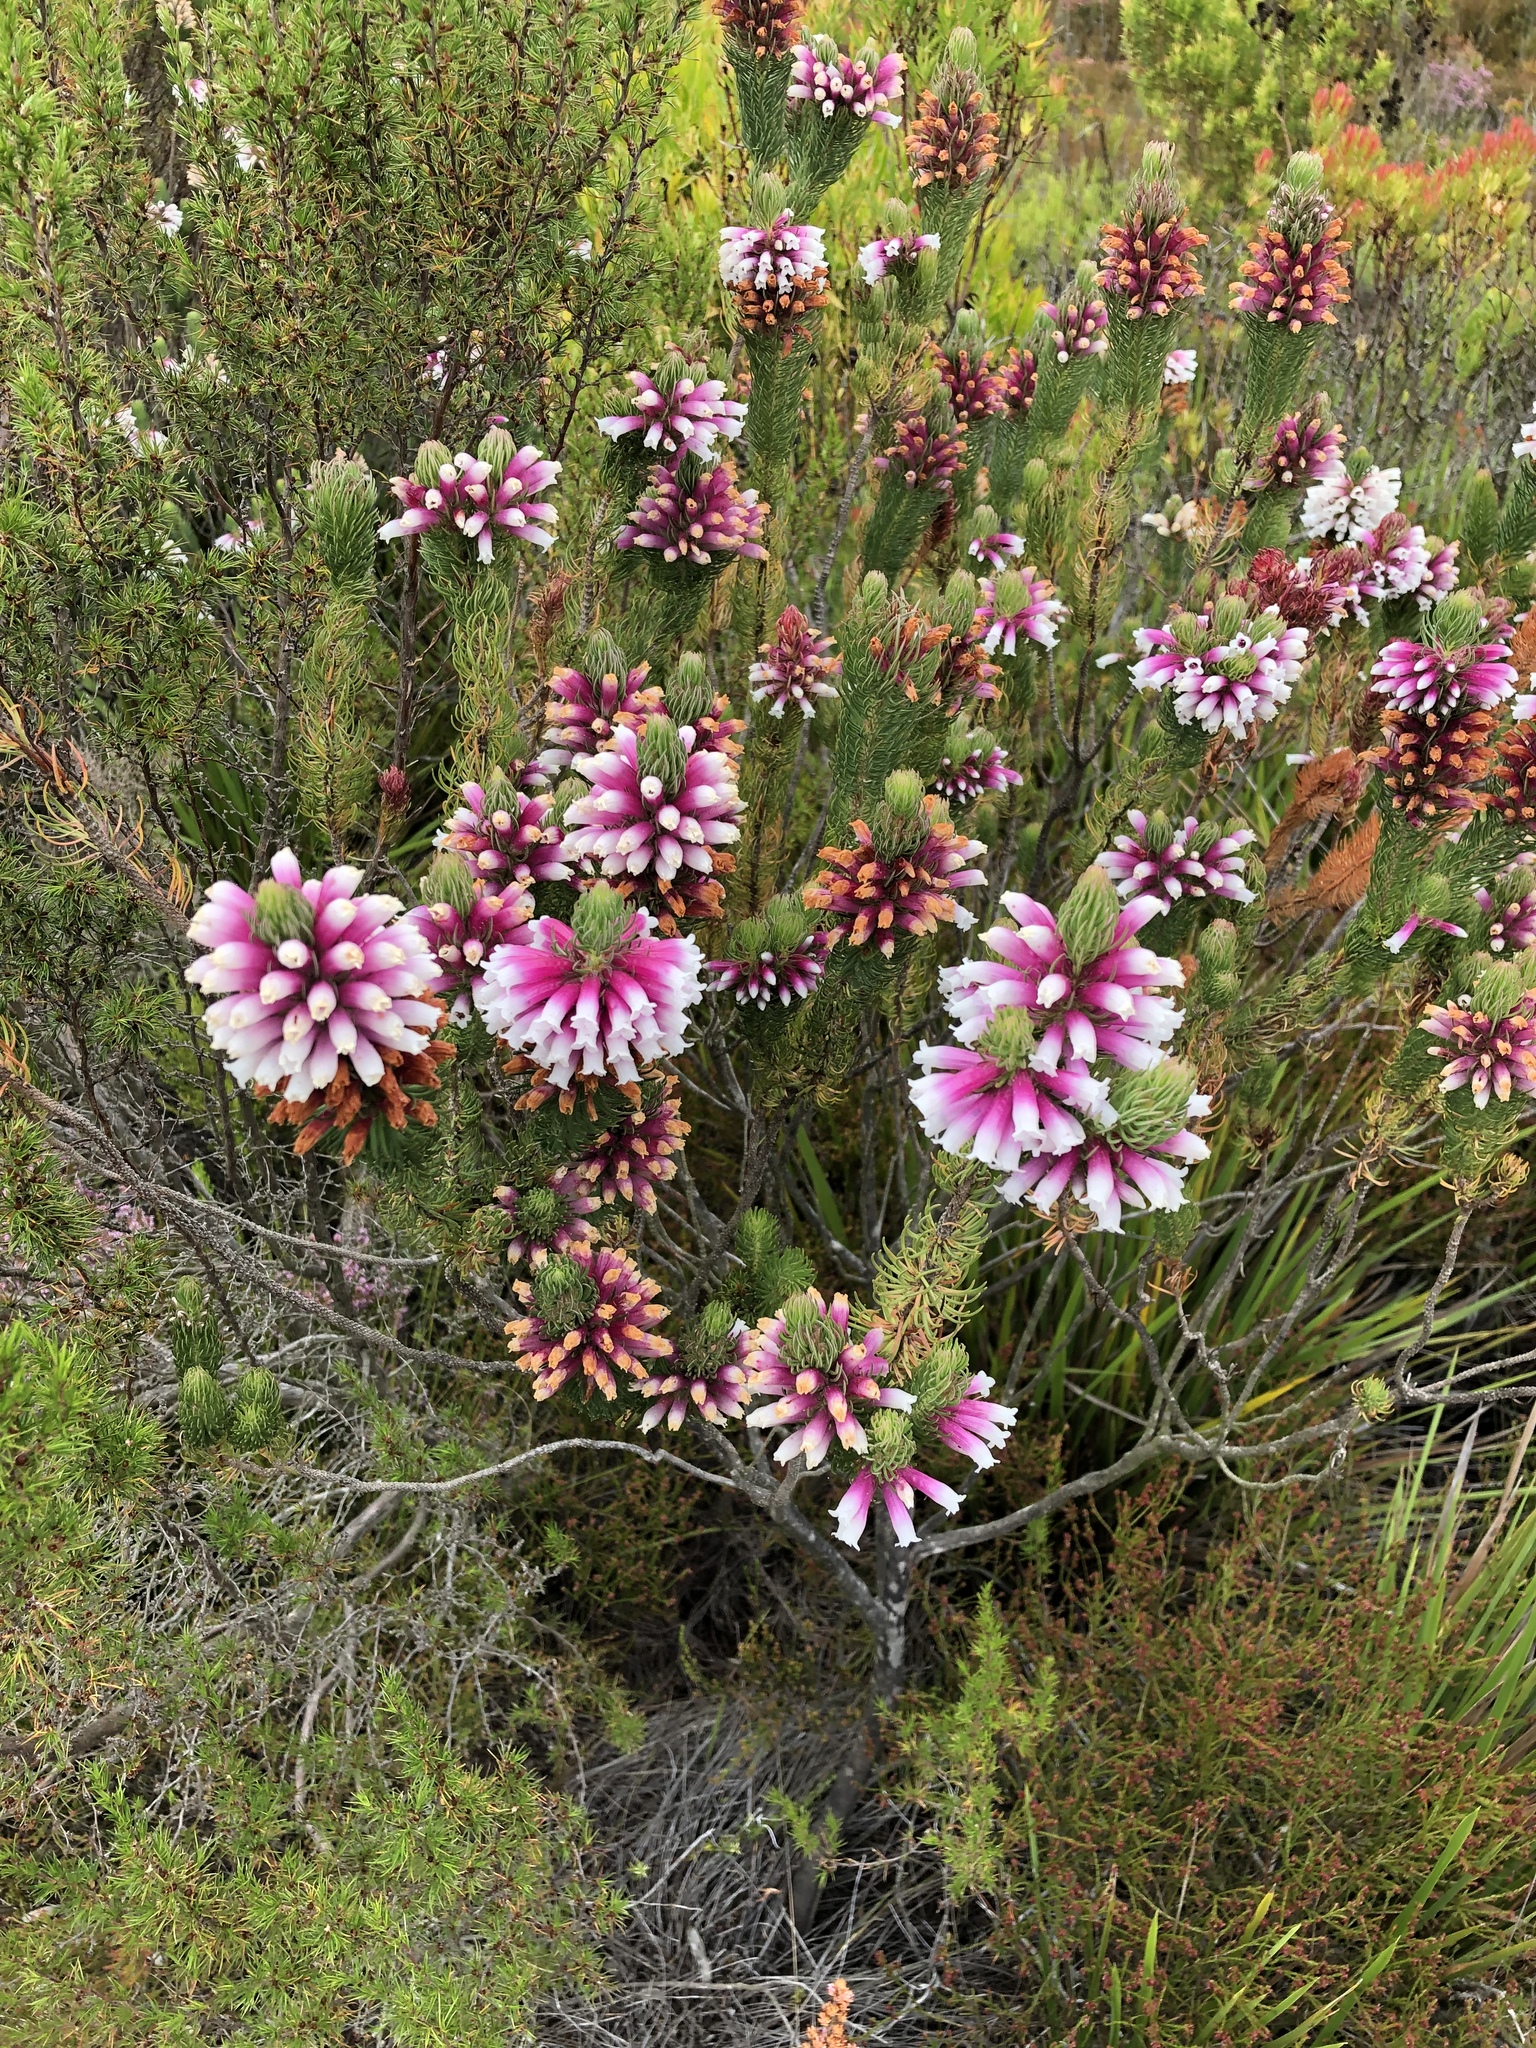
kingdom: Plantae
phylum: Tracheophyta
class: Magnoliopsida
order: Ericales
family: Ericaceae
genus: Erica
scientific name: Erica viscaria
